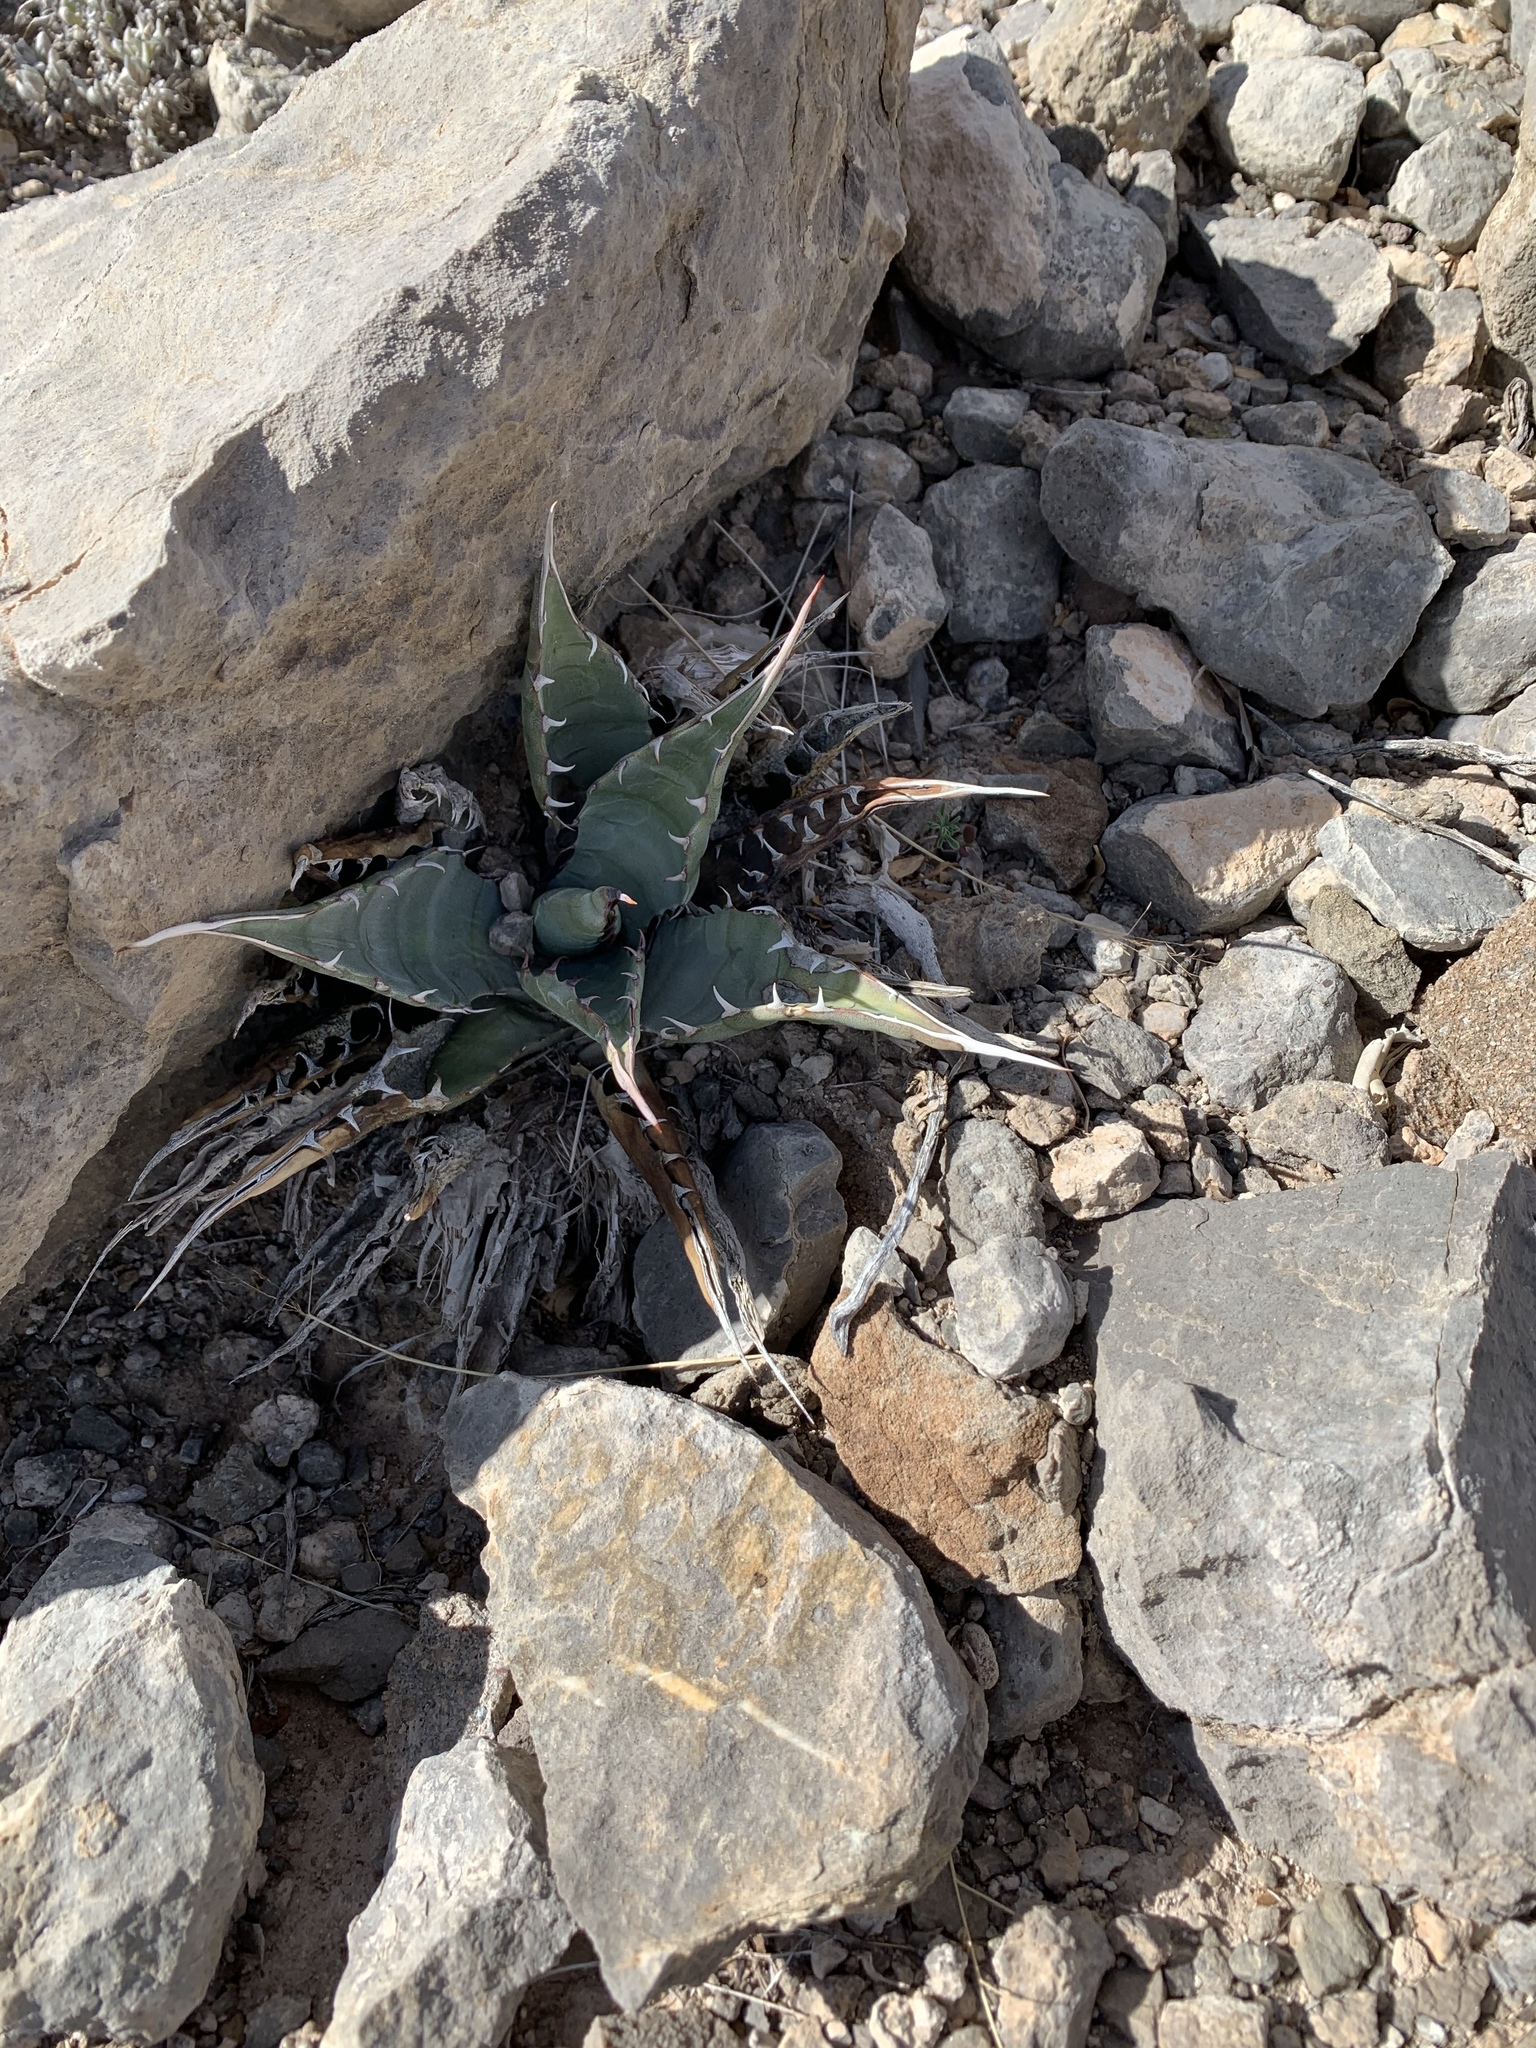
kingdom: Plantae
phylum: Tracheophyta
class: Liliopsida
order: Asparagales
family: Asparagaceae
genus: Agave
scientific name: Agave parryi
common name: Parry's agave
